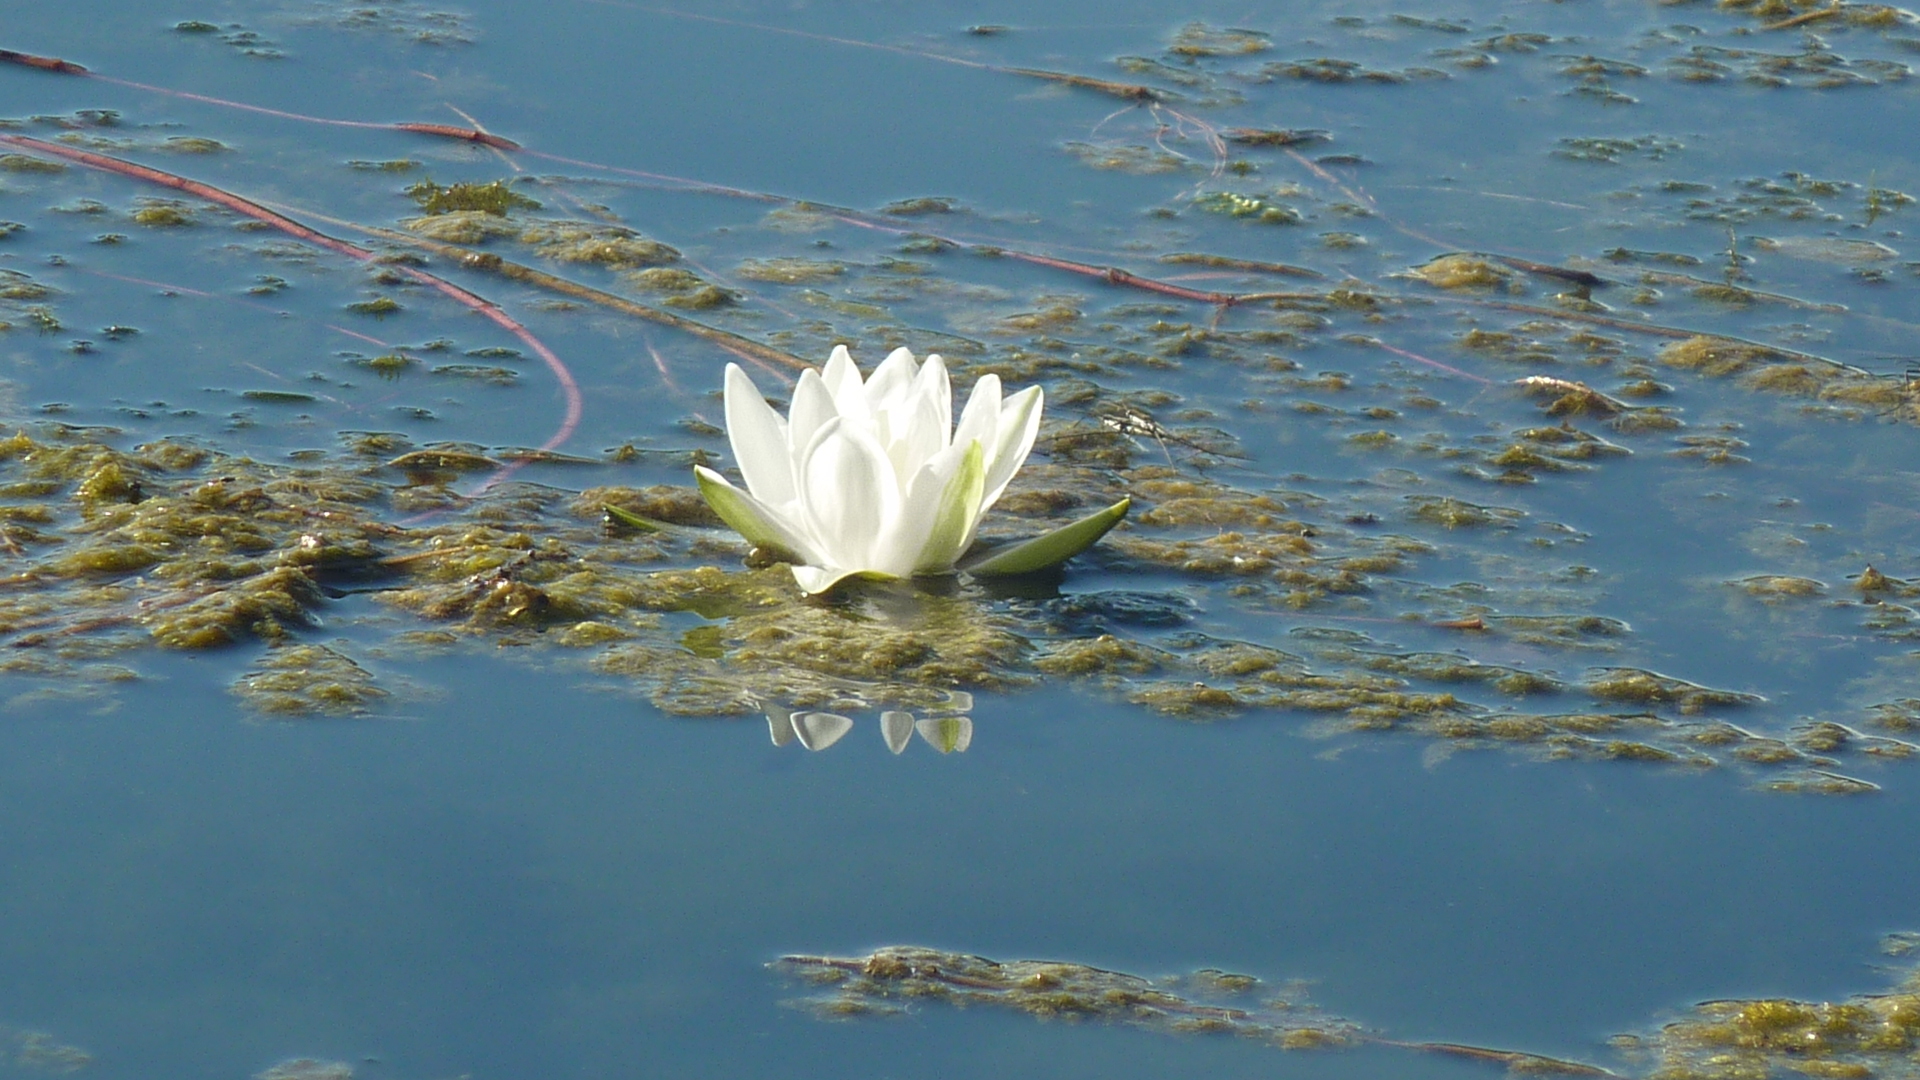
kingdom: Plantae
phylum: Tracheophyta
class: Magnoliopsida
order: Nymphaeales
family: Nymphaeaceae
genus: Nymphaea
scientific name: Nymphaea alba
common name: White water-lily
